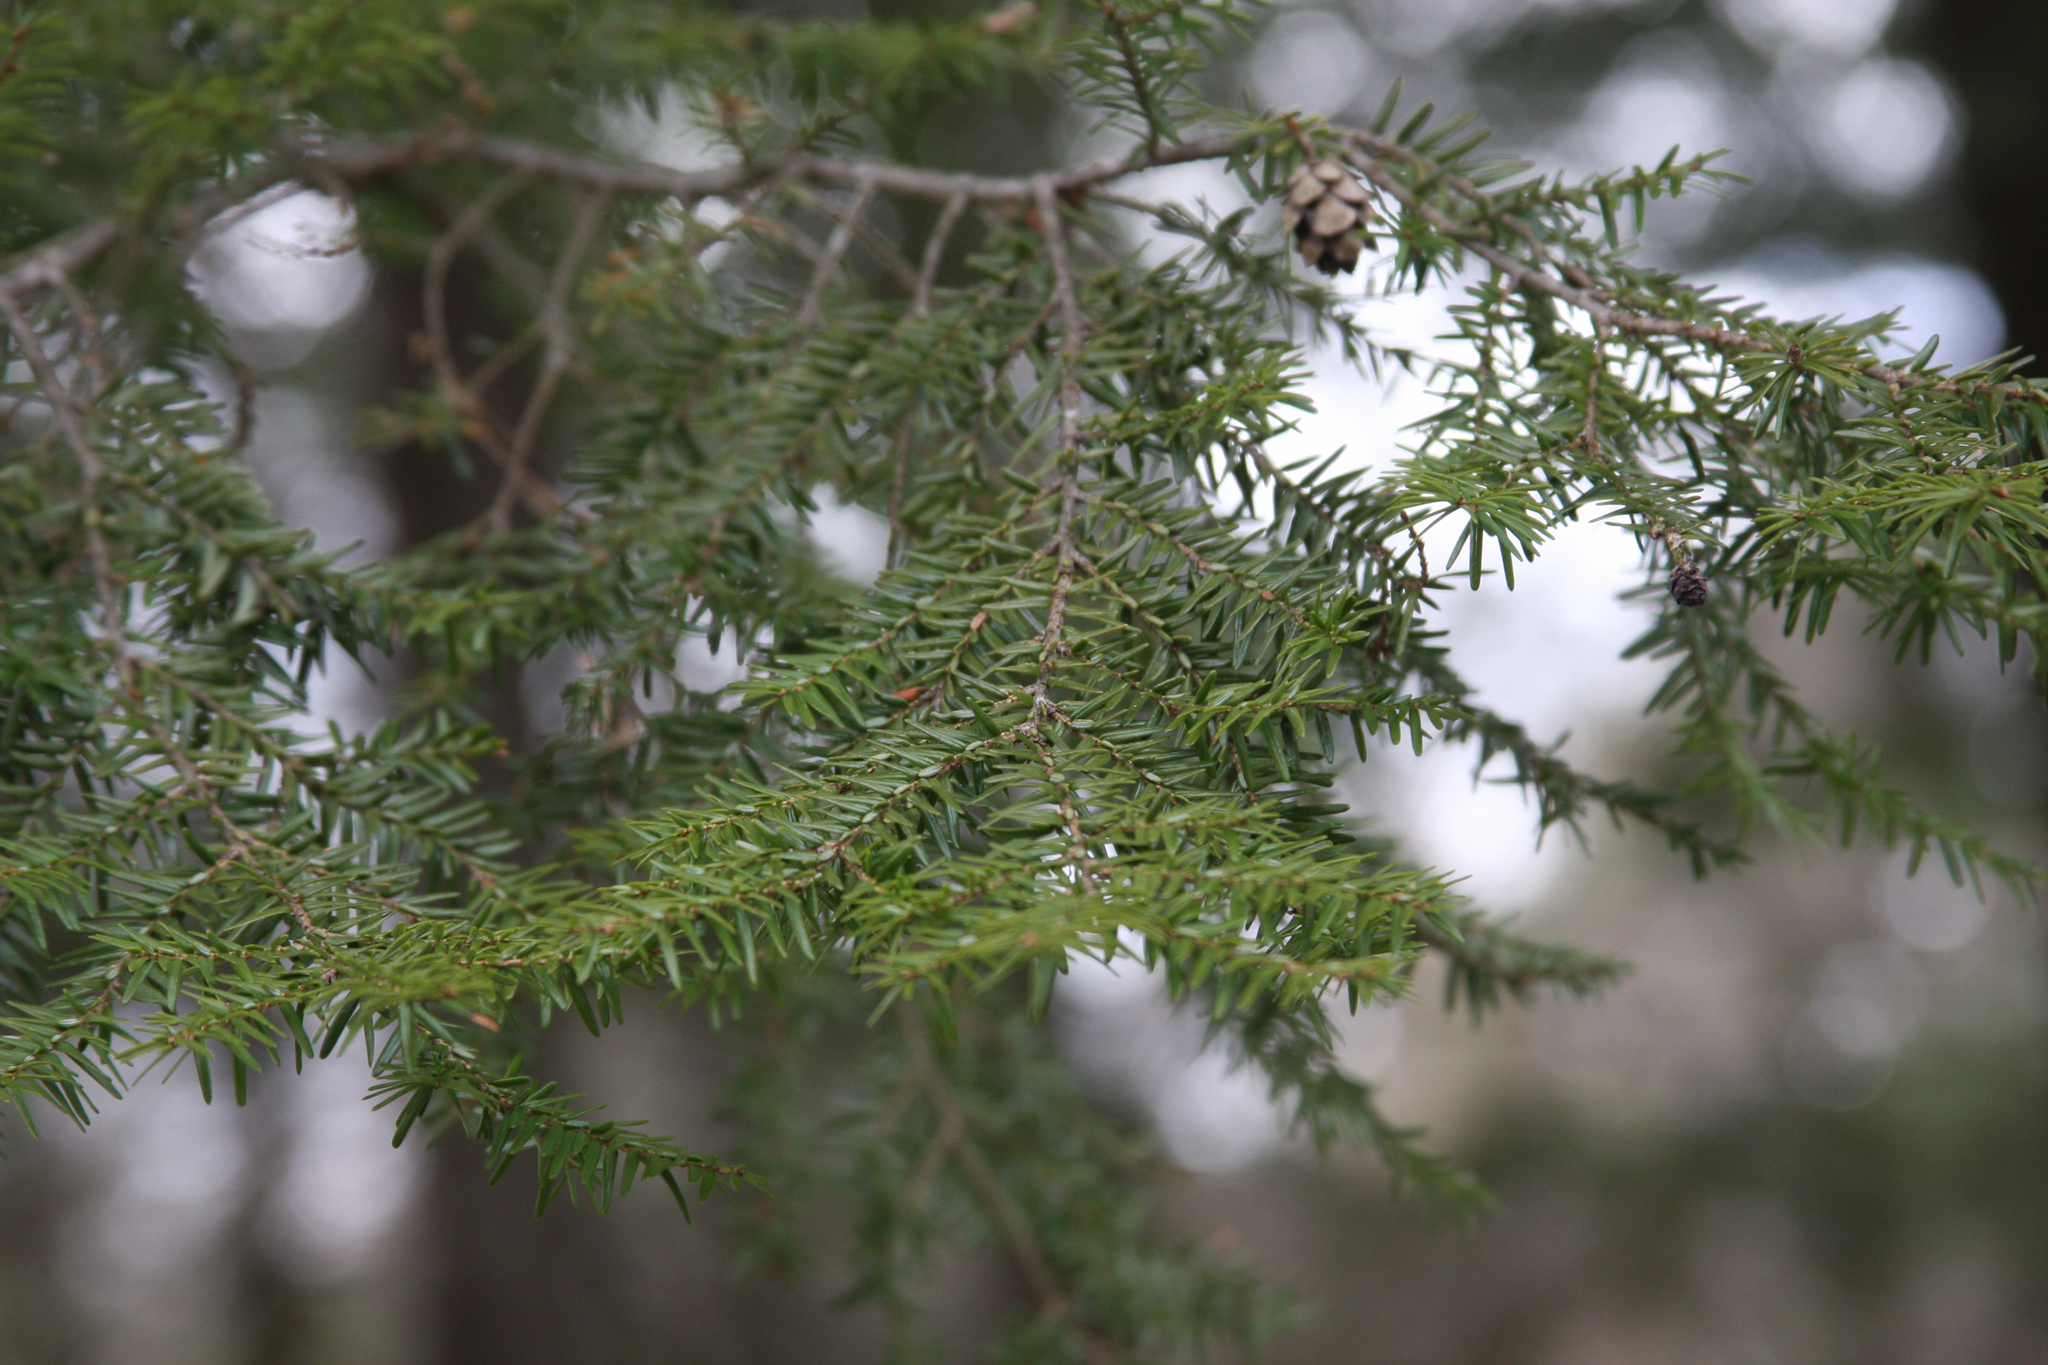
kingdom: Plantae
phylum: Tracheophyta
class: Pinopsida
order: Pinales
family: Pinaceae
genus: Tsuga
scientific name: Tsuga canadensis
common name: Eastern hemlock
